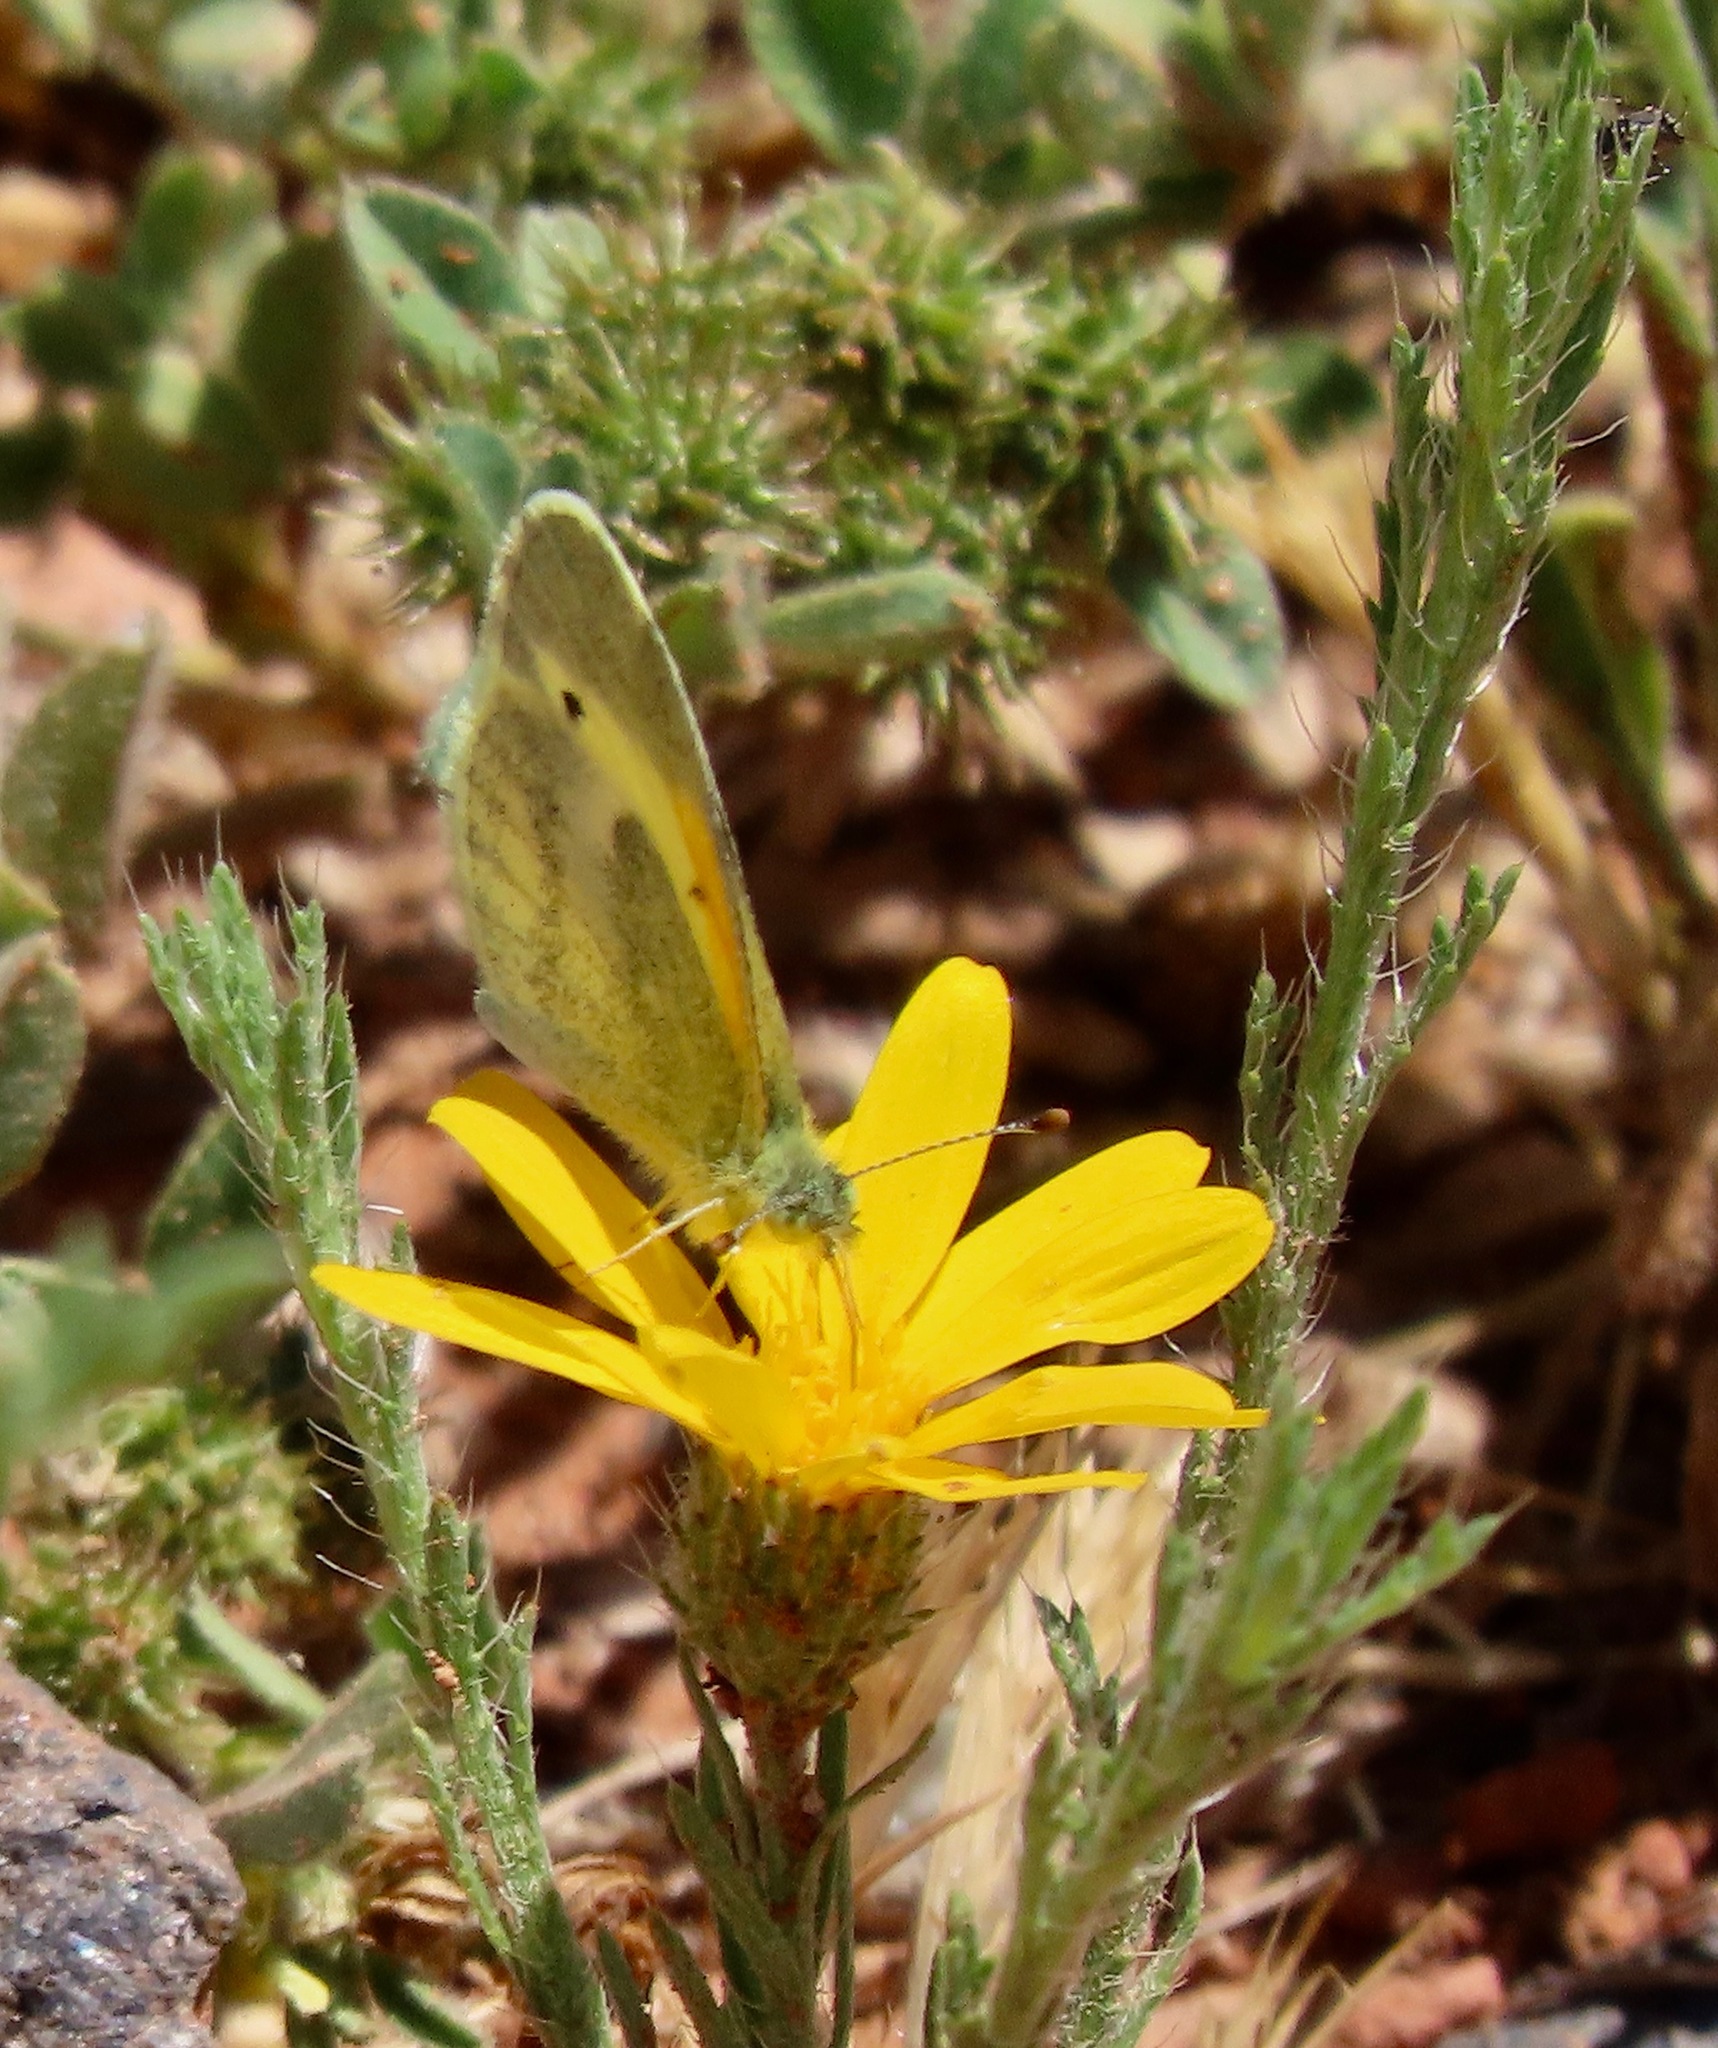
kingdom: Animalia
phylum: Arthropoda
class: Insecta
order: Lepidoptera
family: Pieridae
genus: Nathalis
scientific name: Nathalis iole
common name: Dainty sulphur
